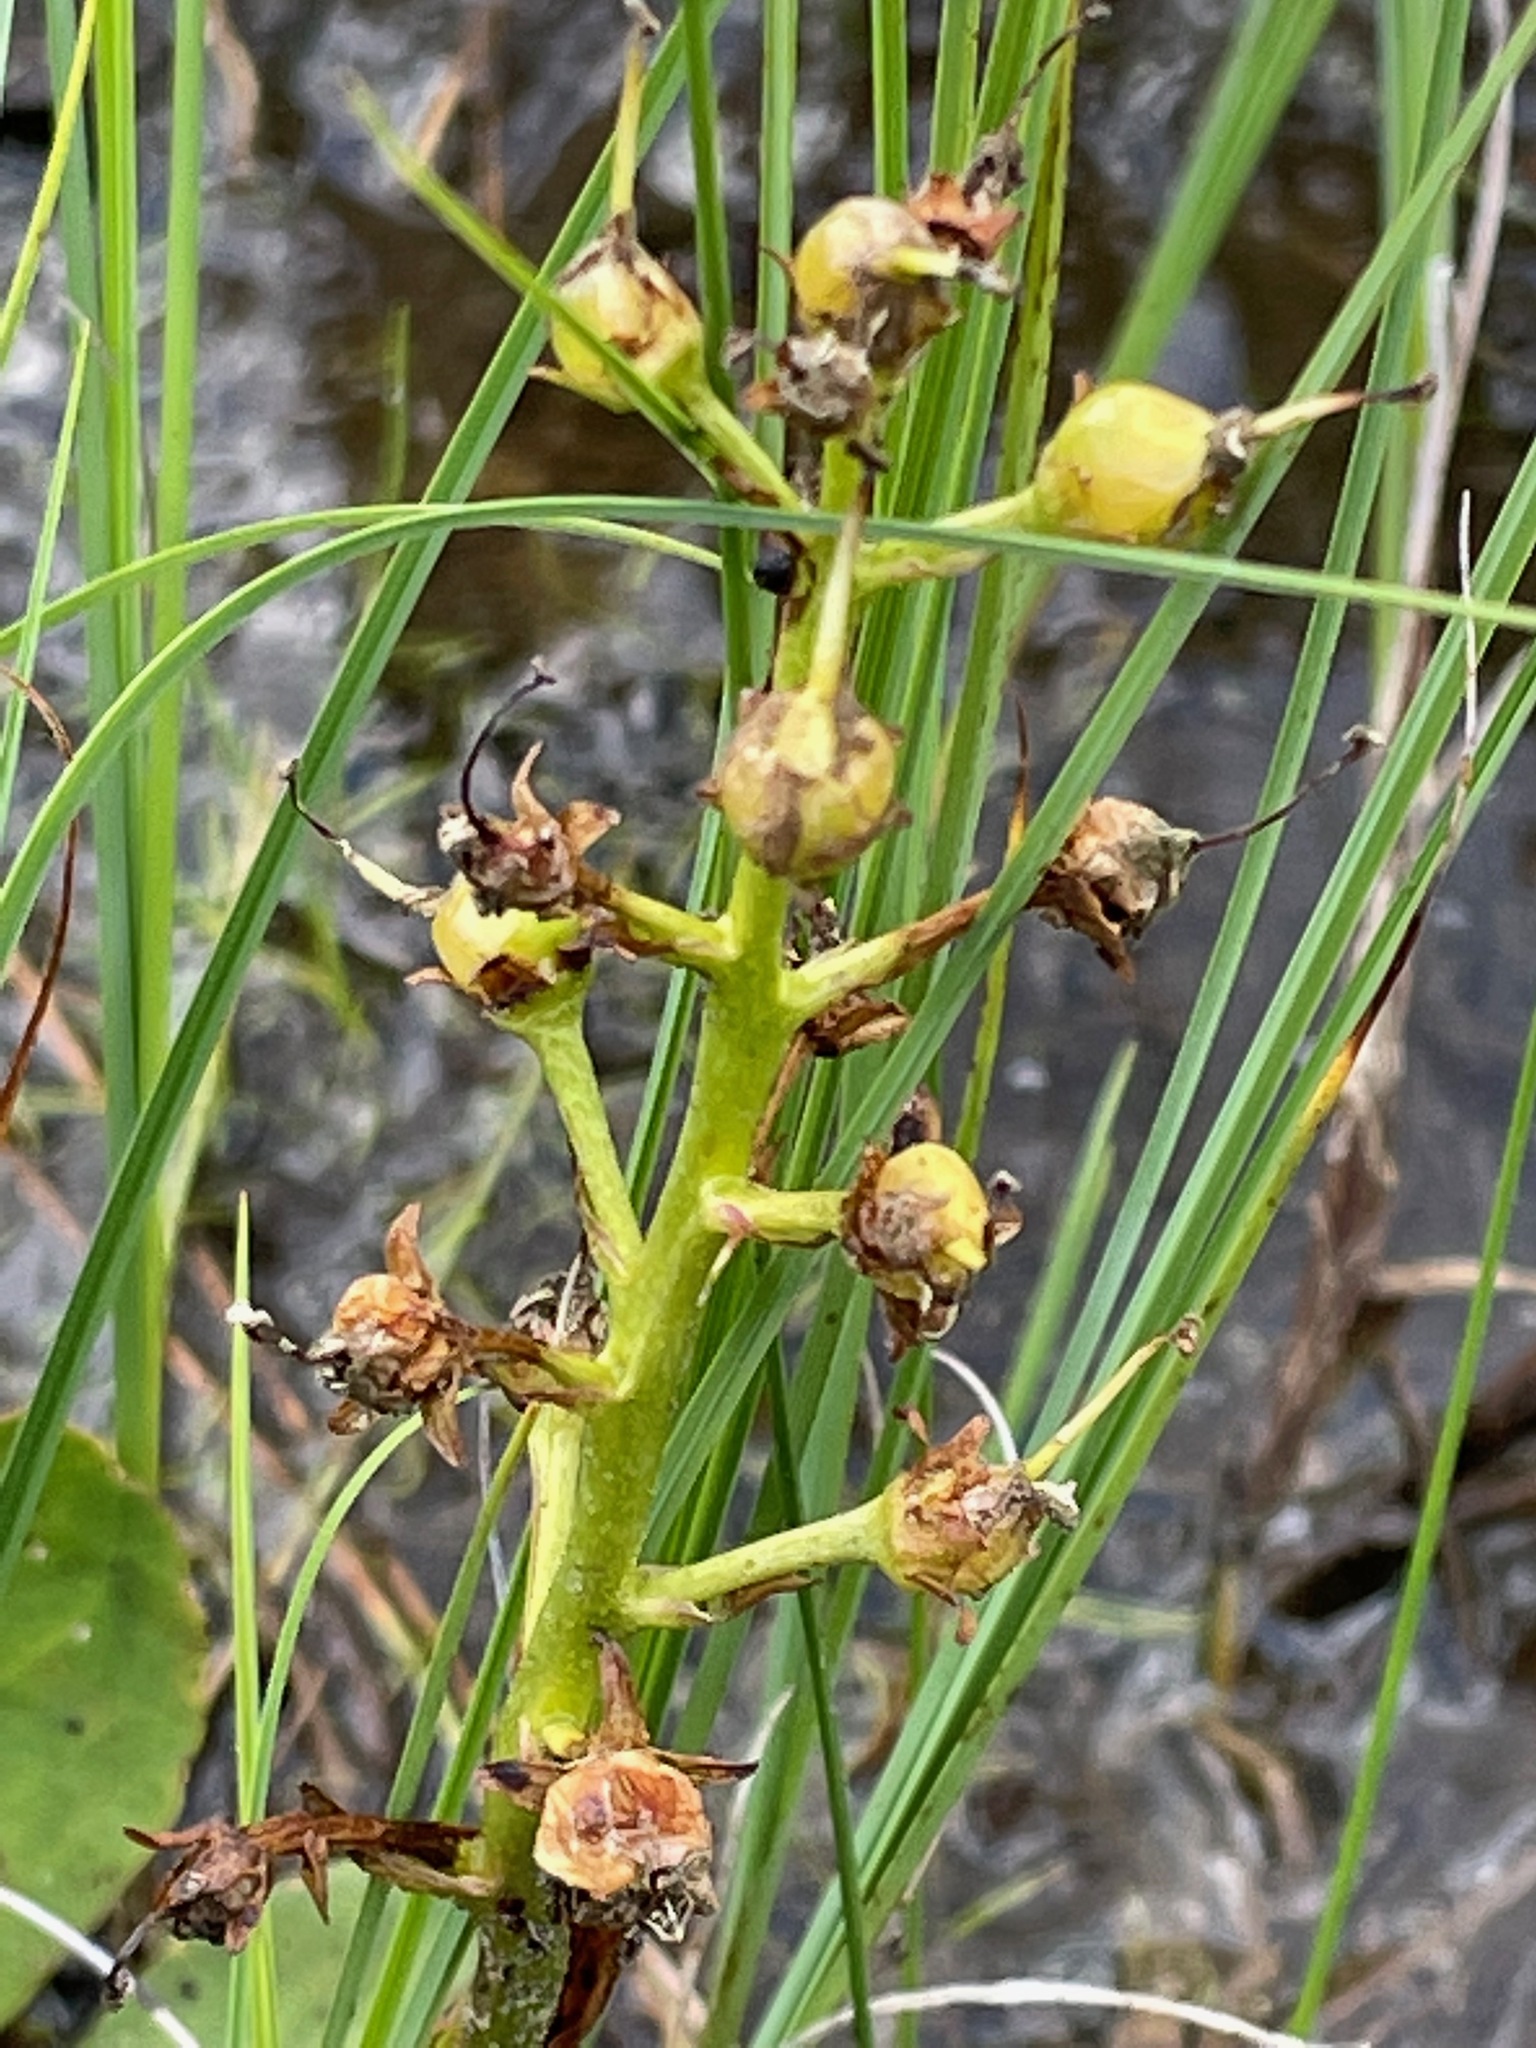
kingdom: Plantae
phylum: Tracheophyta
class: Magnoliopsida
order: Asterales
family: Menyanthaceae
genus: Menyanthes
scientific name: Menyanthes trifoliata
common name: Bogbean
